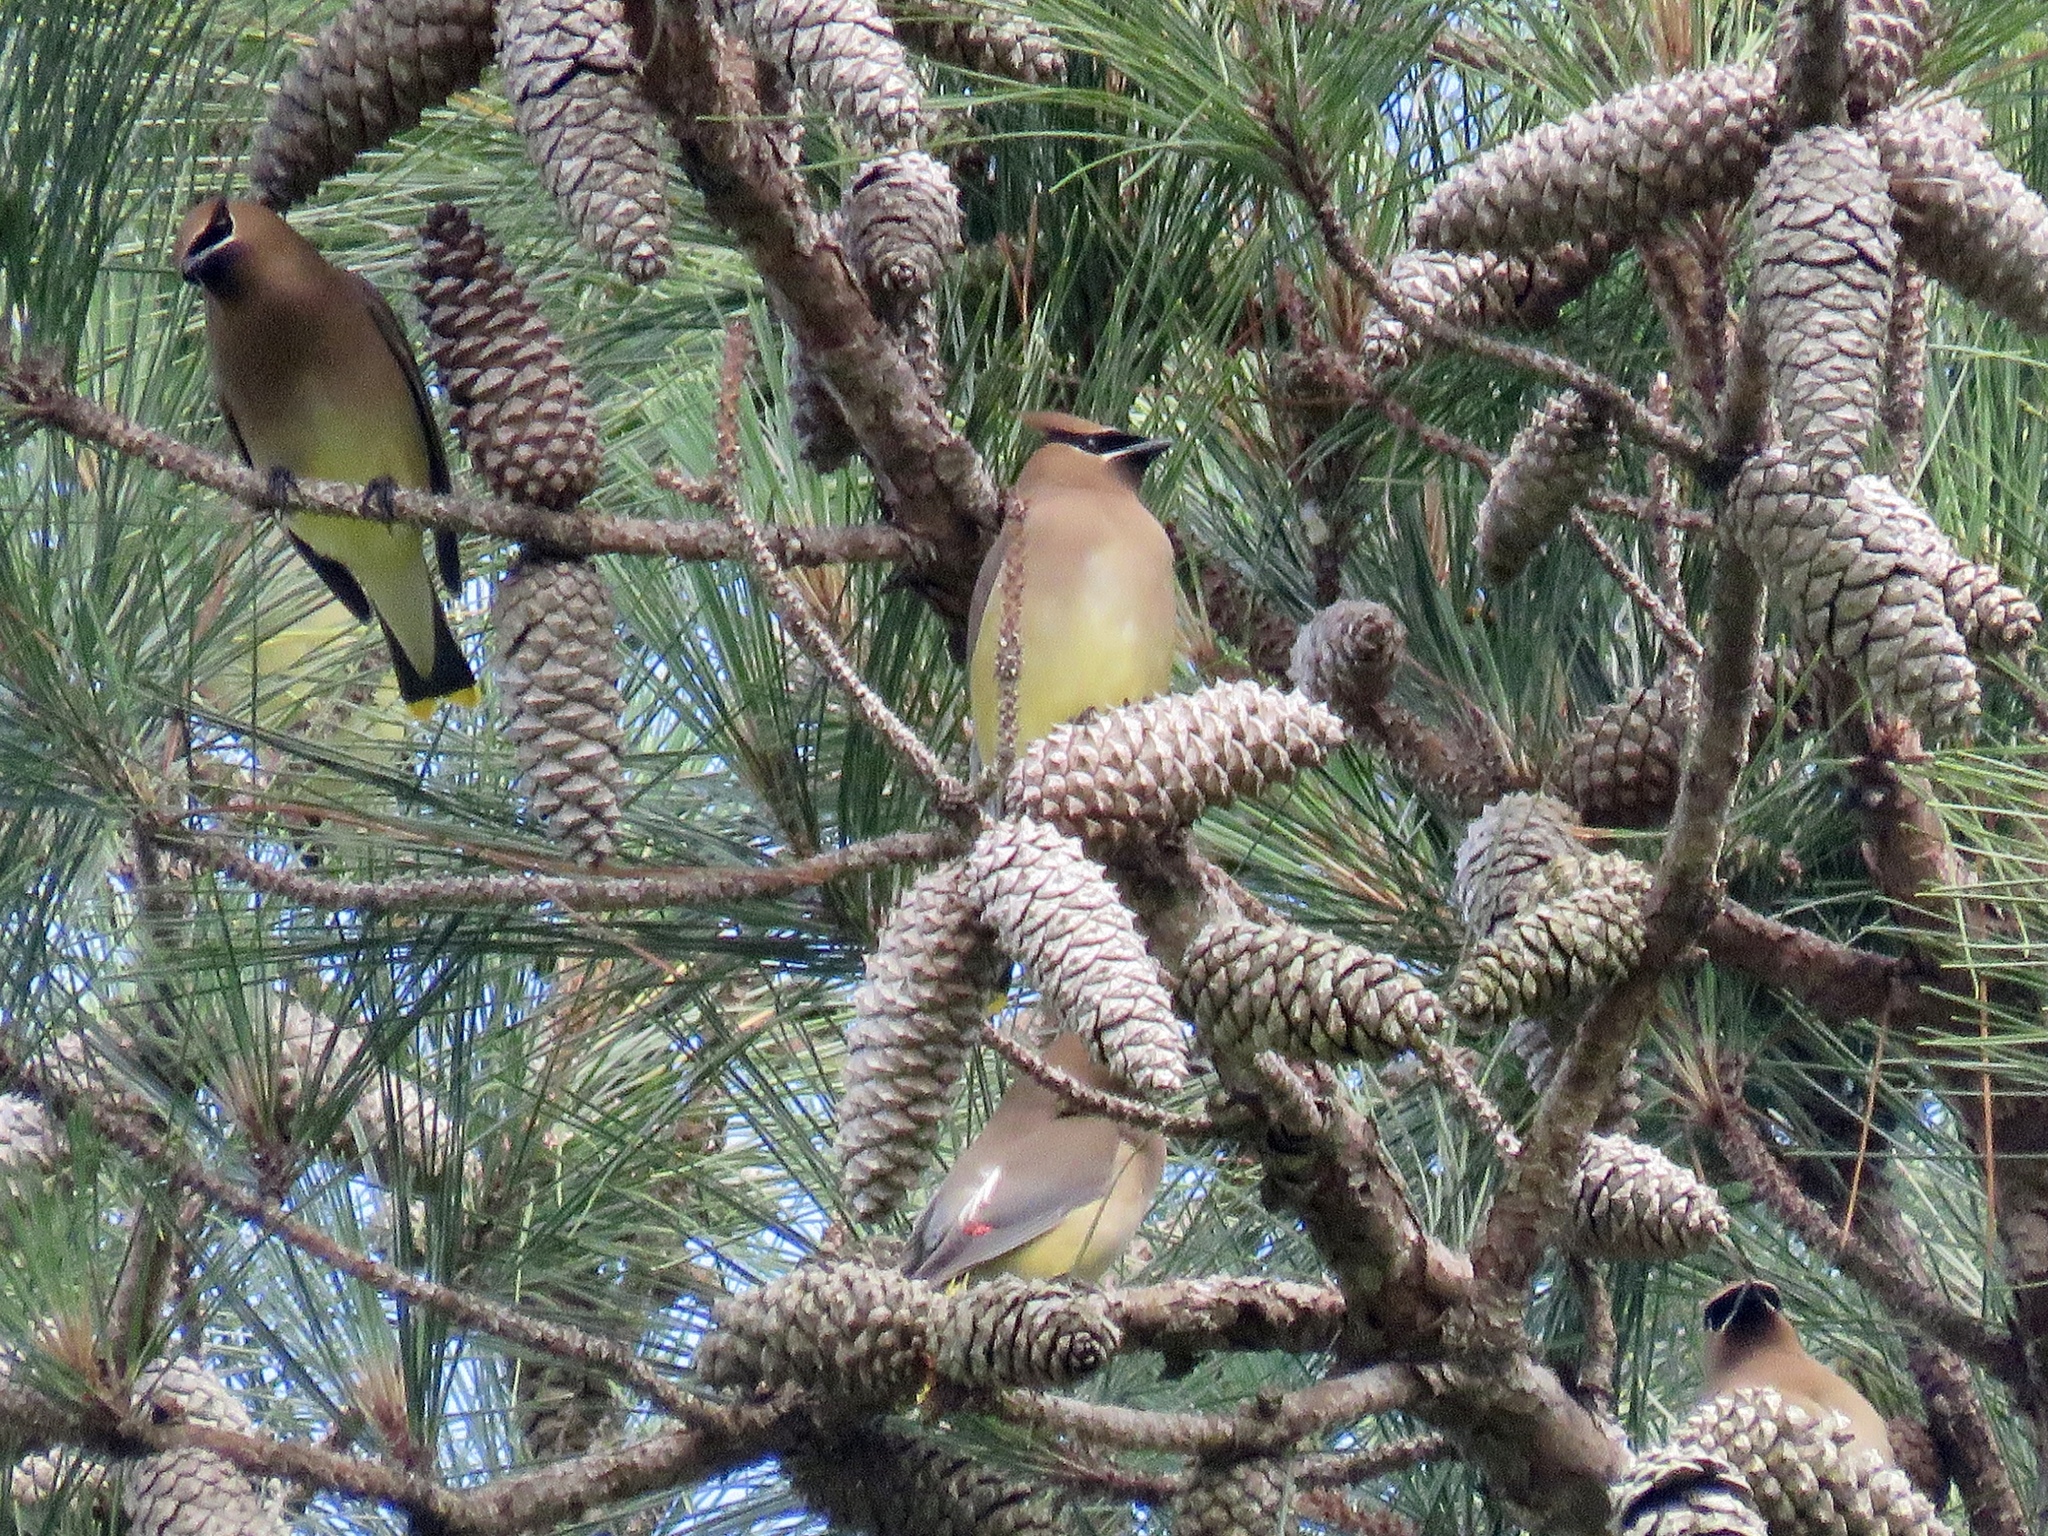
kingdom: Animalia
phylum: Chordata
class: Aves
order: Passeriformes
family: Bombycillidae
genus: Bombycilla
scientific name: Bombycilla cedrorum
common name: Cedar waxwing
